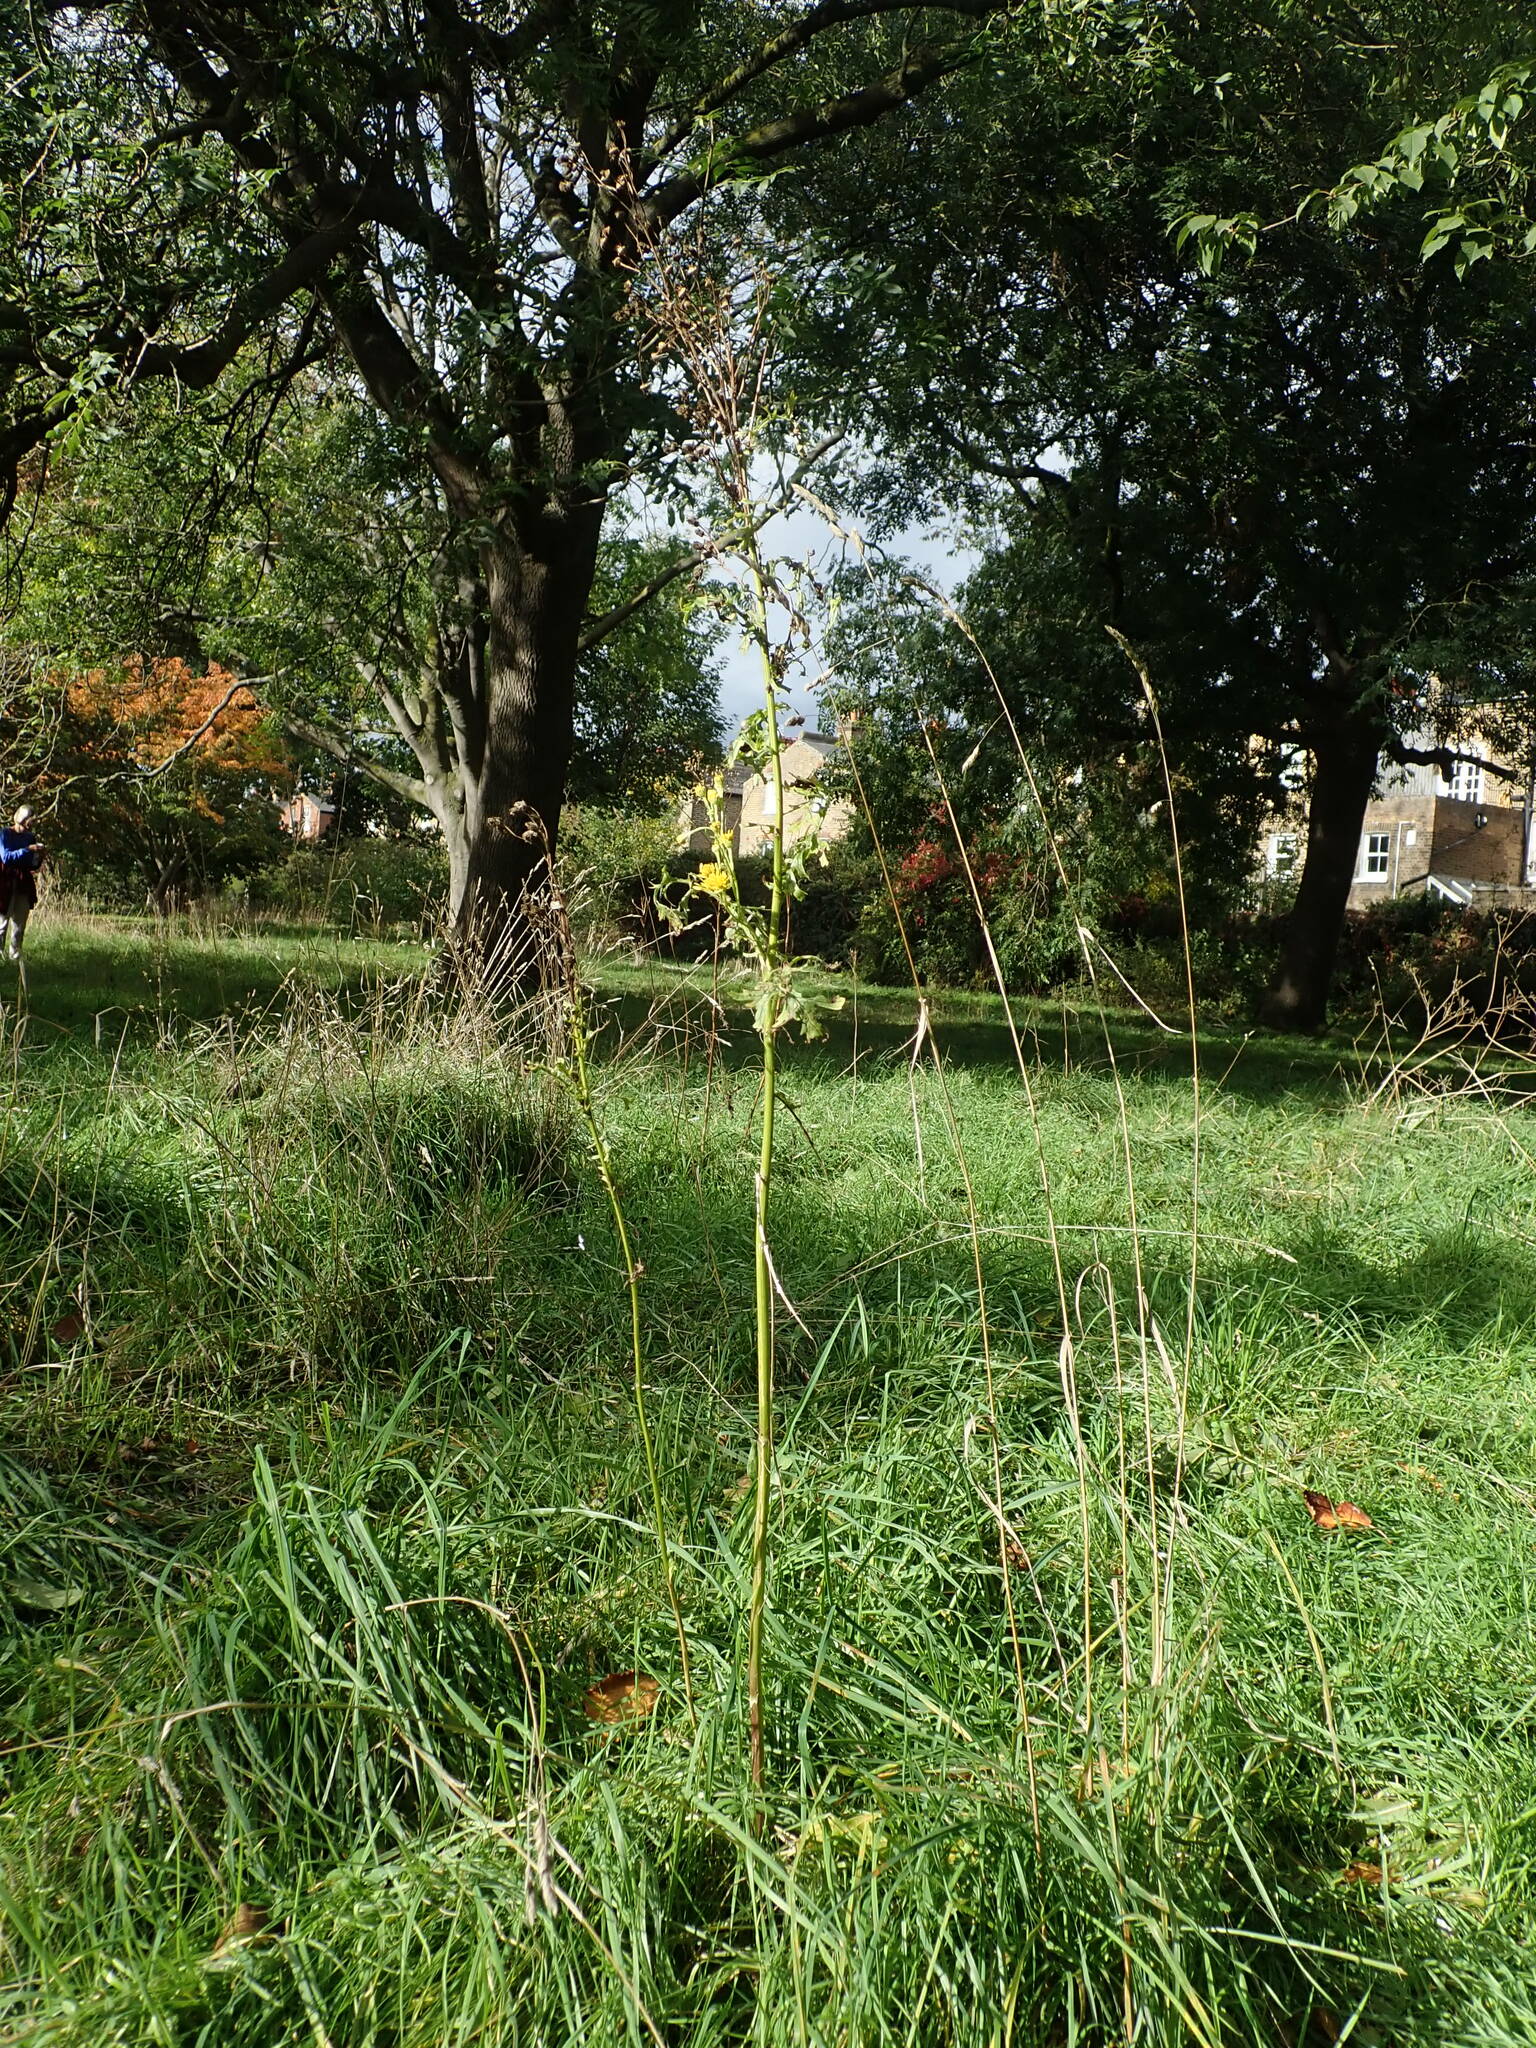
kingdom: Plantae
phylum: Tracheophyta
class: Magnoliopsida
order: Asterales
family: Asteraceae
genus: Jacobaea
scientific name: Jacobaea vulgaris
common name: Stinking willie
